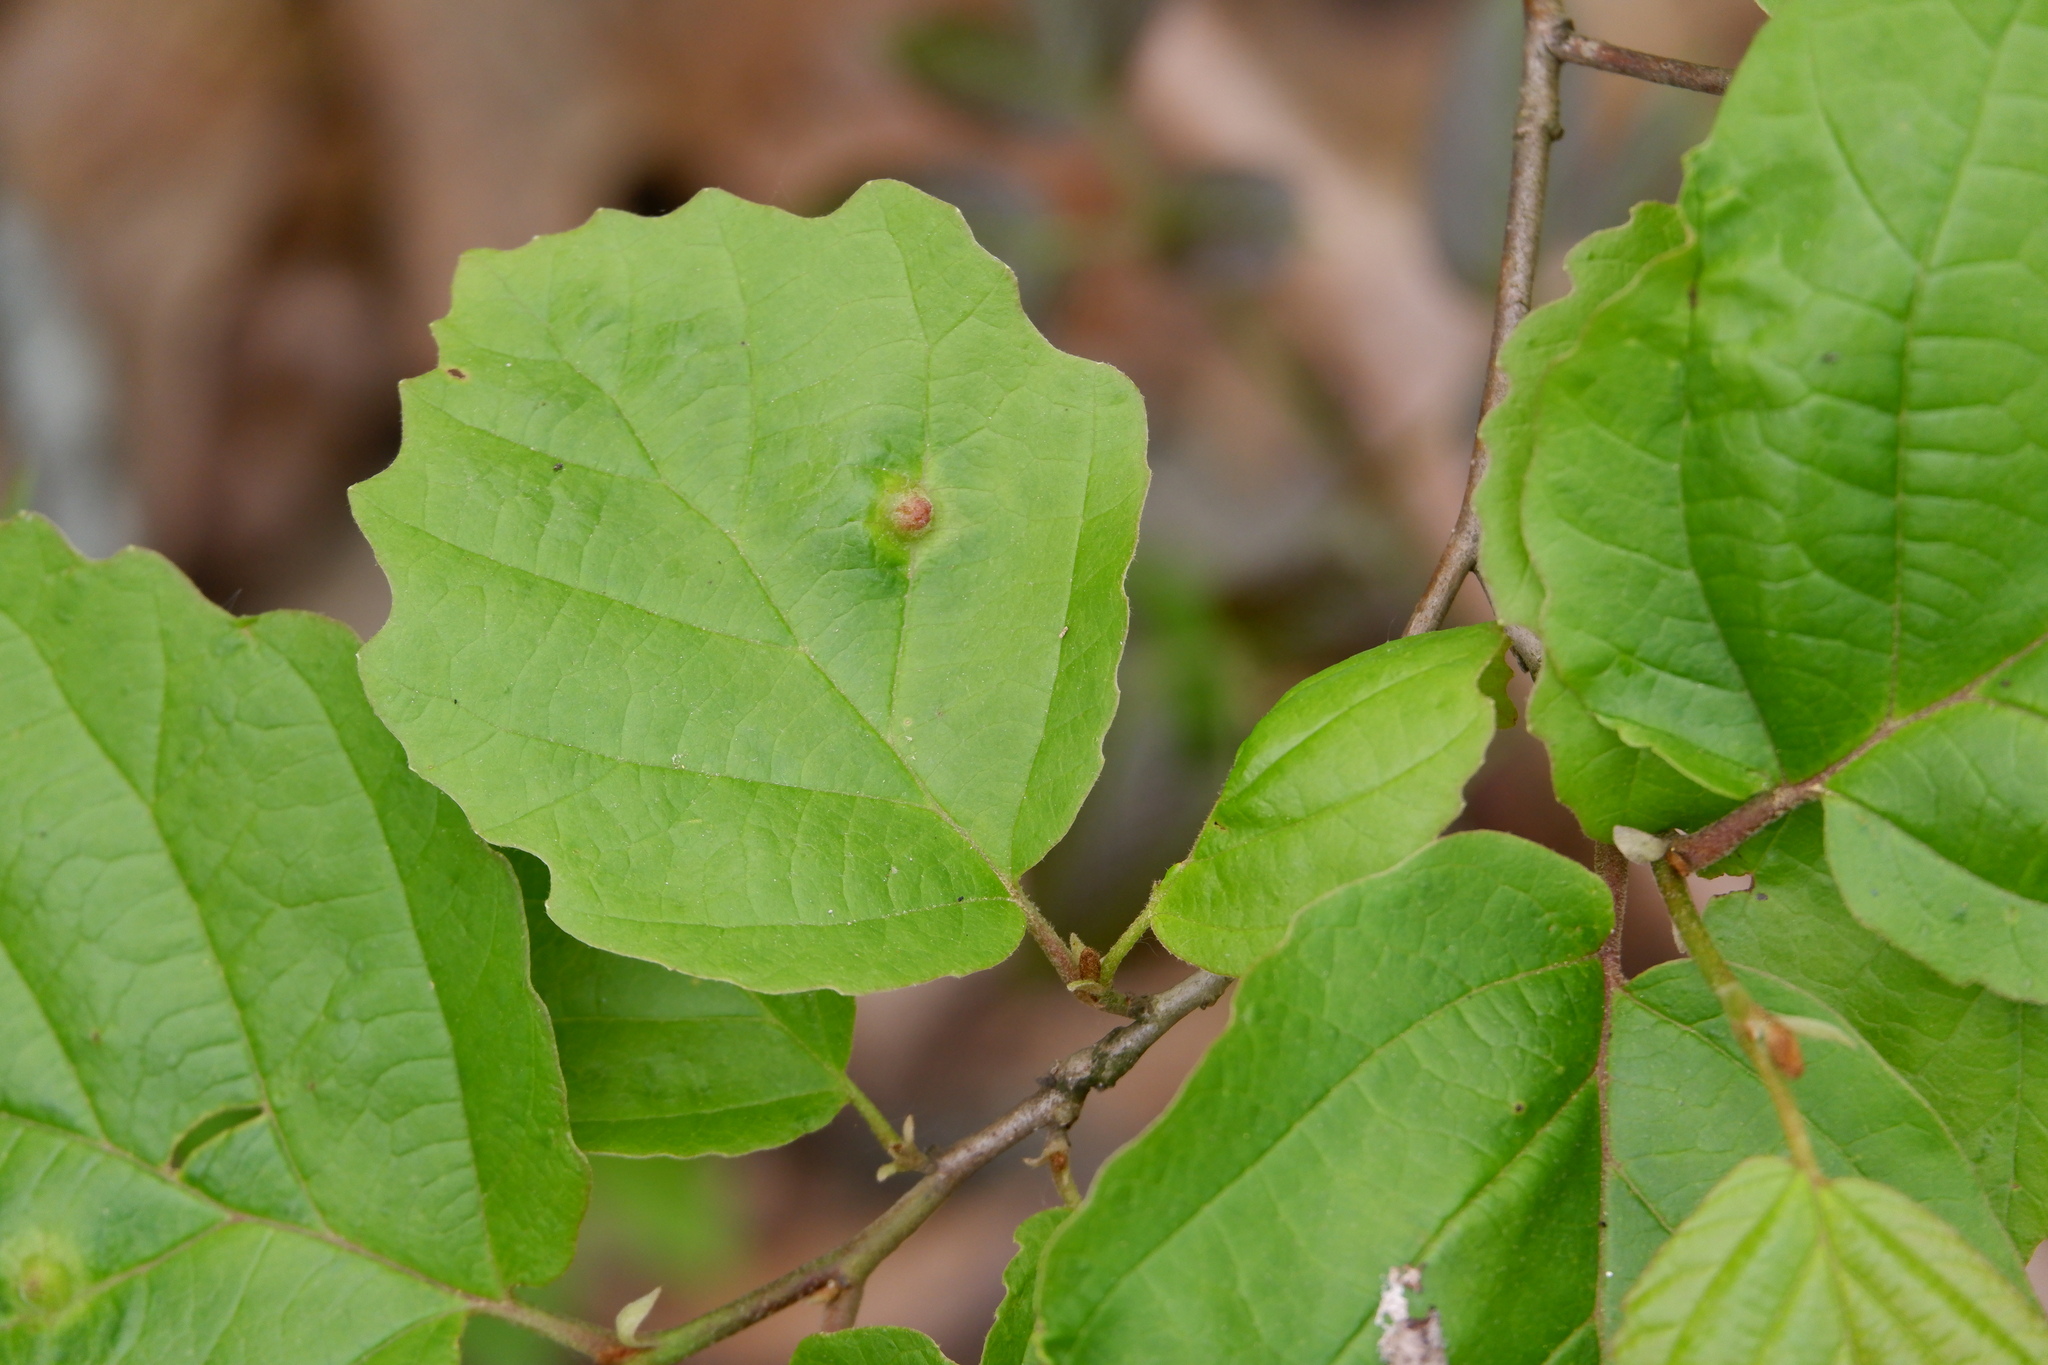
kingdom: Plantae
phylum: Tracheophyta
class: Magnoliopsida
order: Saxifragales
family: Hamamelidaceae
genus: Hamamelis
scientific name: Hamamelis virginiana
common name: Witch-hazel
